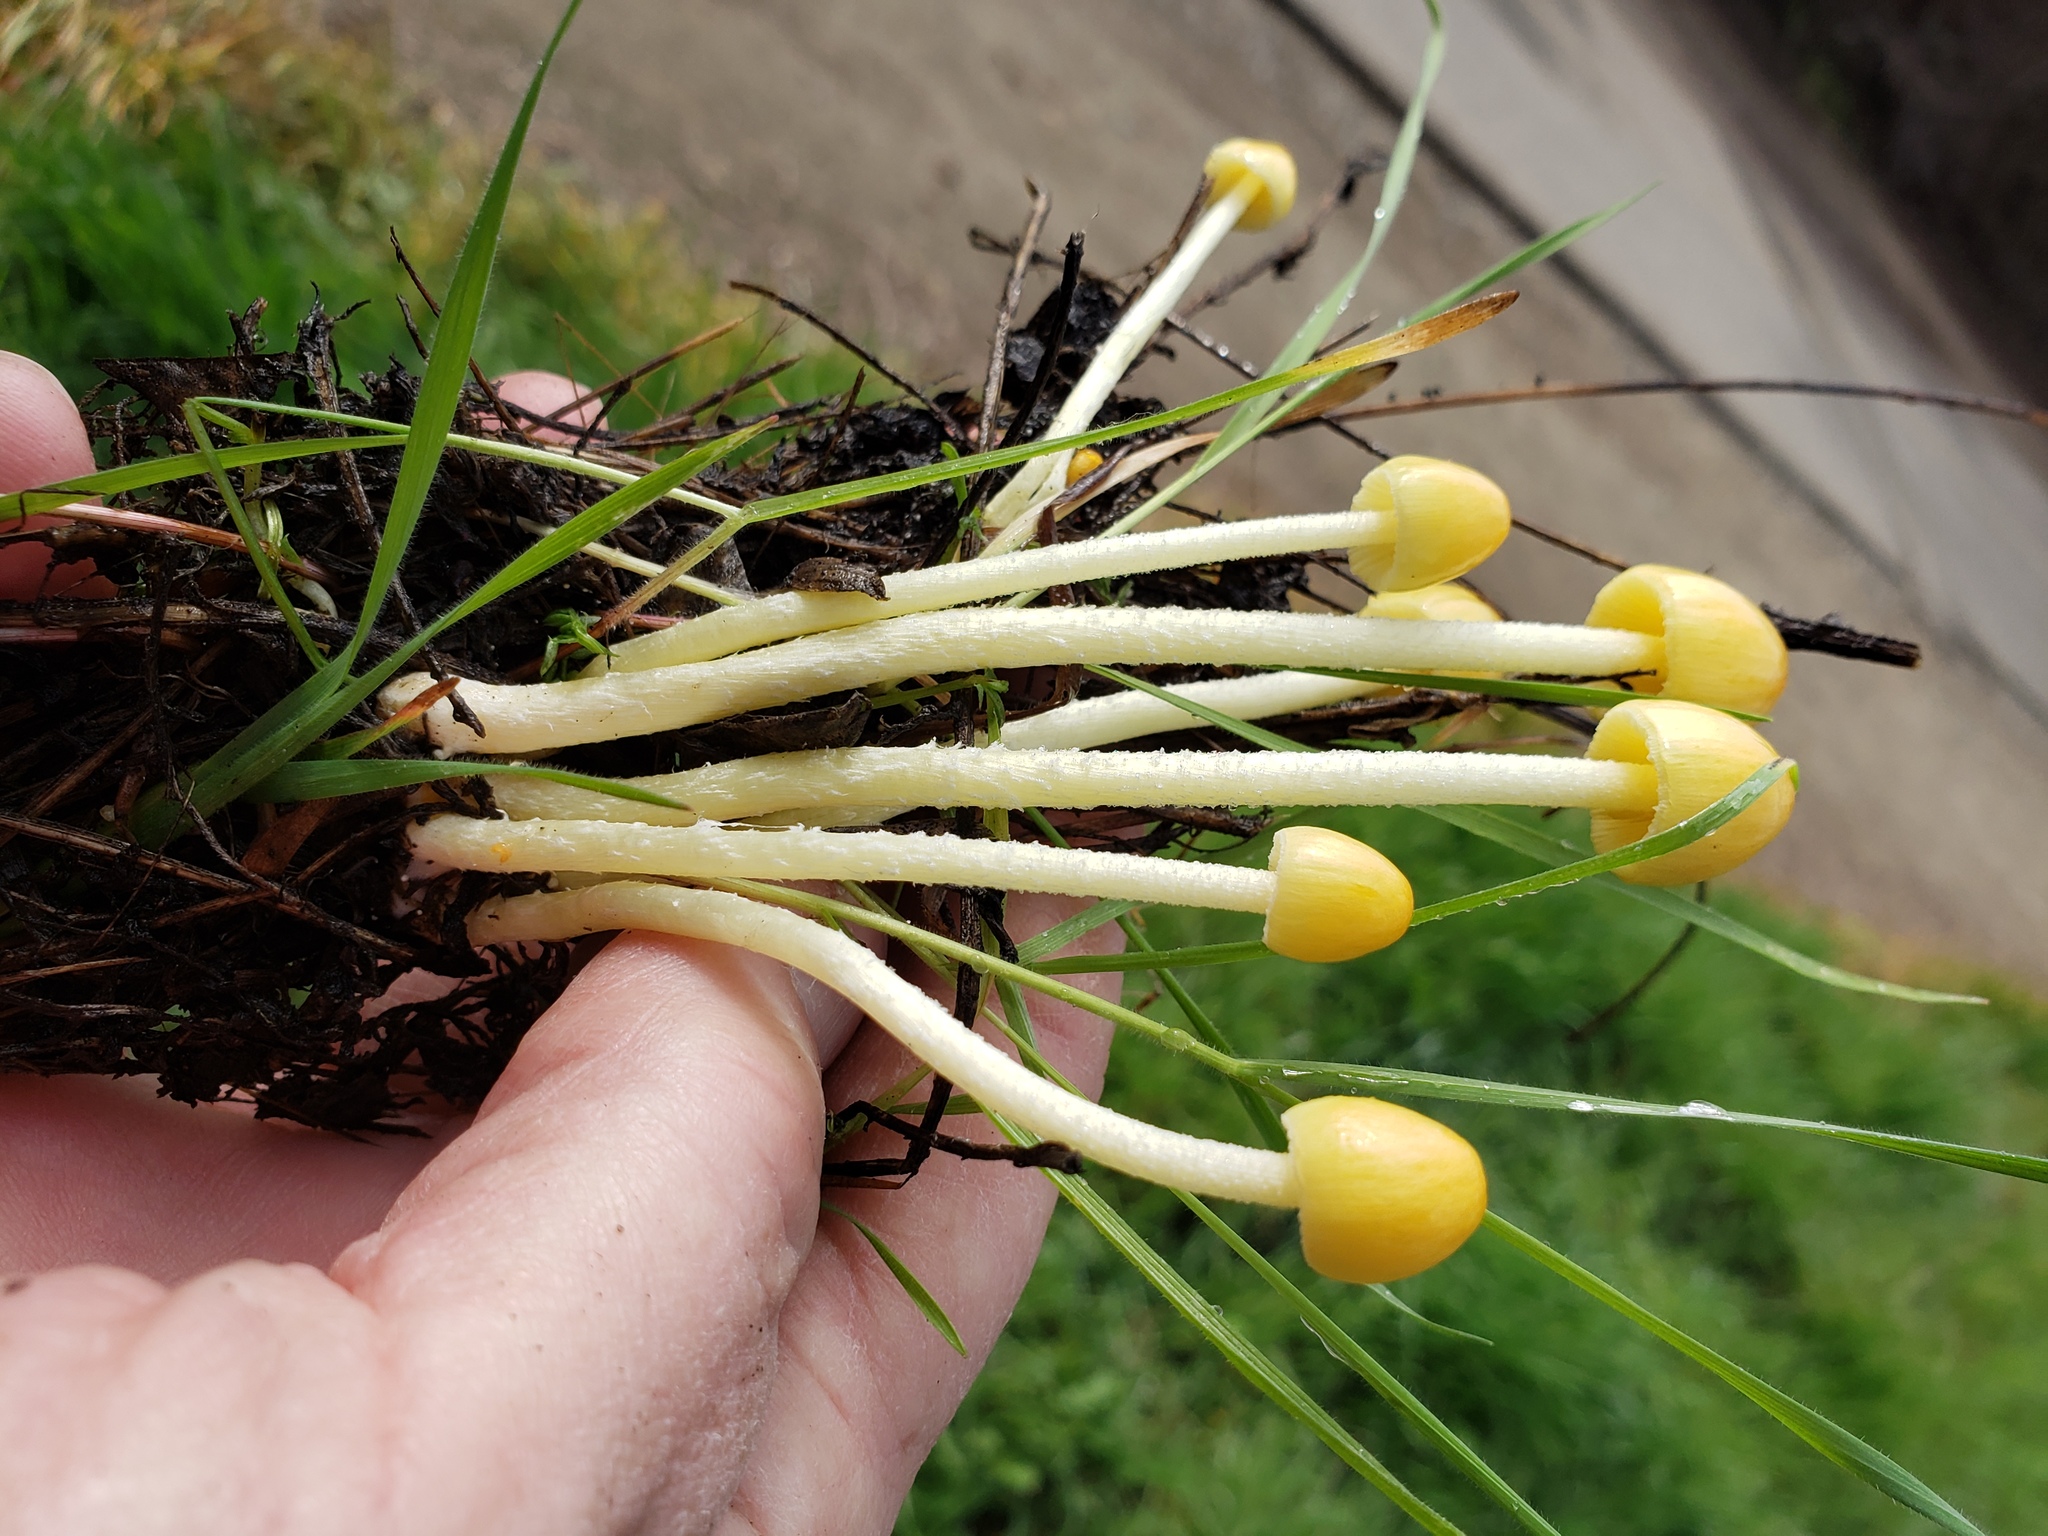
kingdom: Fungi
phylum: Basidiomycota
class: Agaricomycetes
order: Agaricales
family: Bolbitiaceae
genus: Bolbitius
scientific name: Bolbitius titubans
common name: Yellow fieldcap
